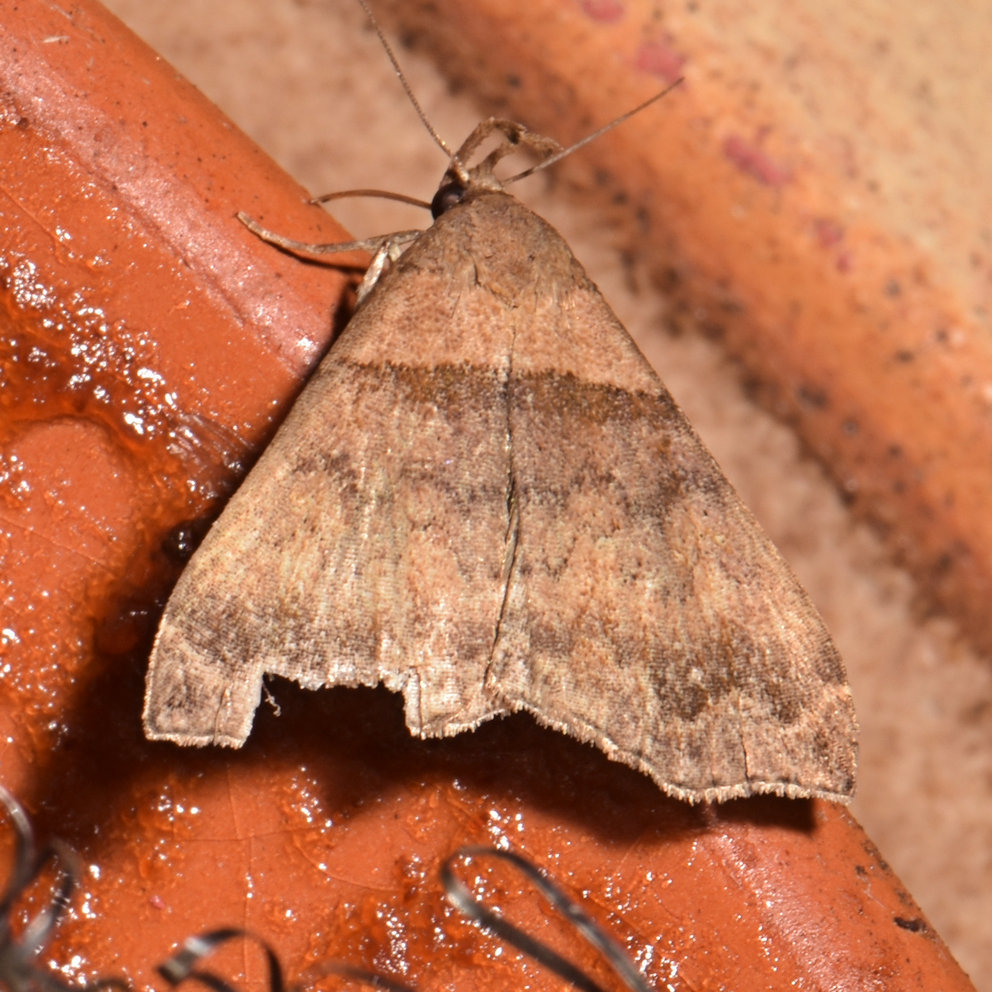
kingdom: Animalia
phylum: Arthropoda
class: Insecta
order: Lepidoptera
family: Erebidae
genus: Lascoria
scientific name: Lascoria ambigualis
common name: Ambiguous moth
